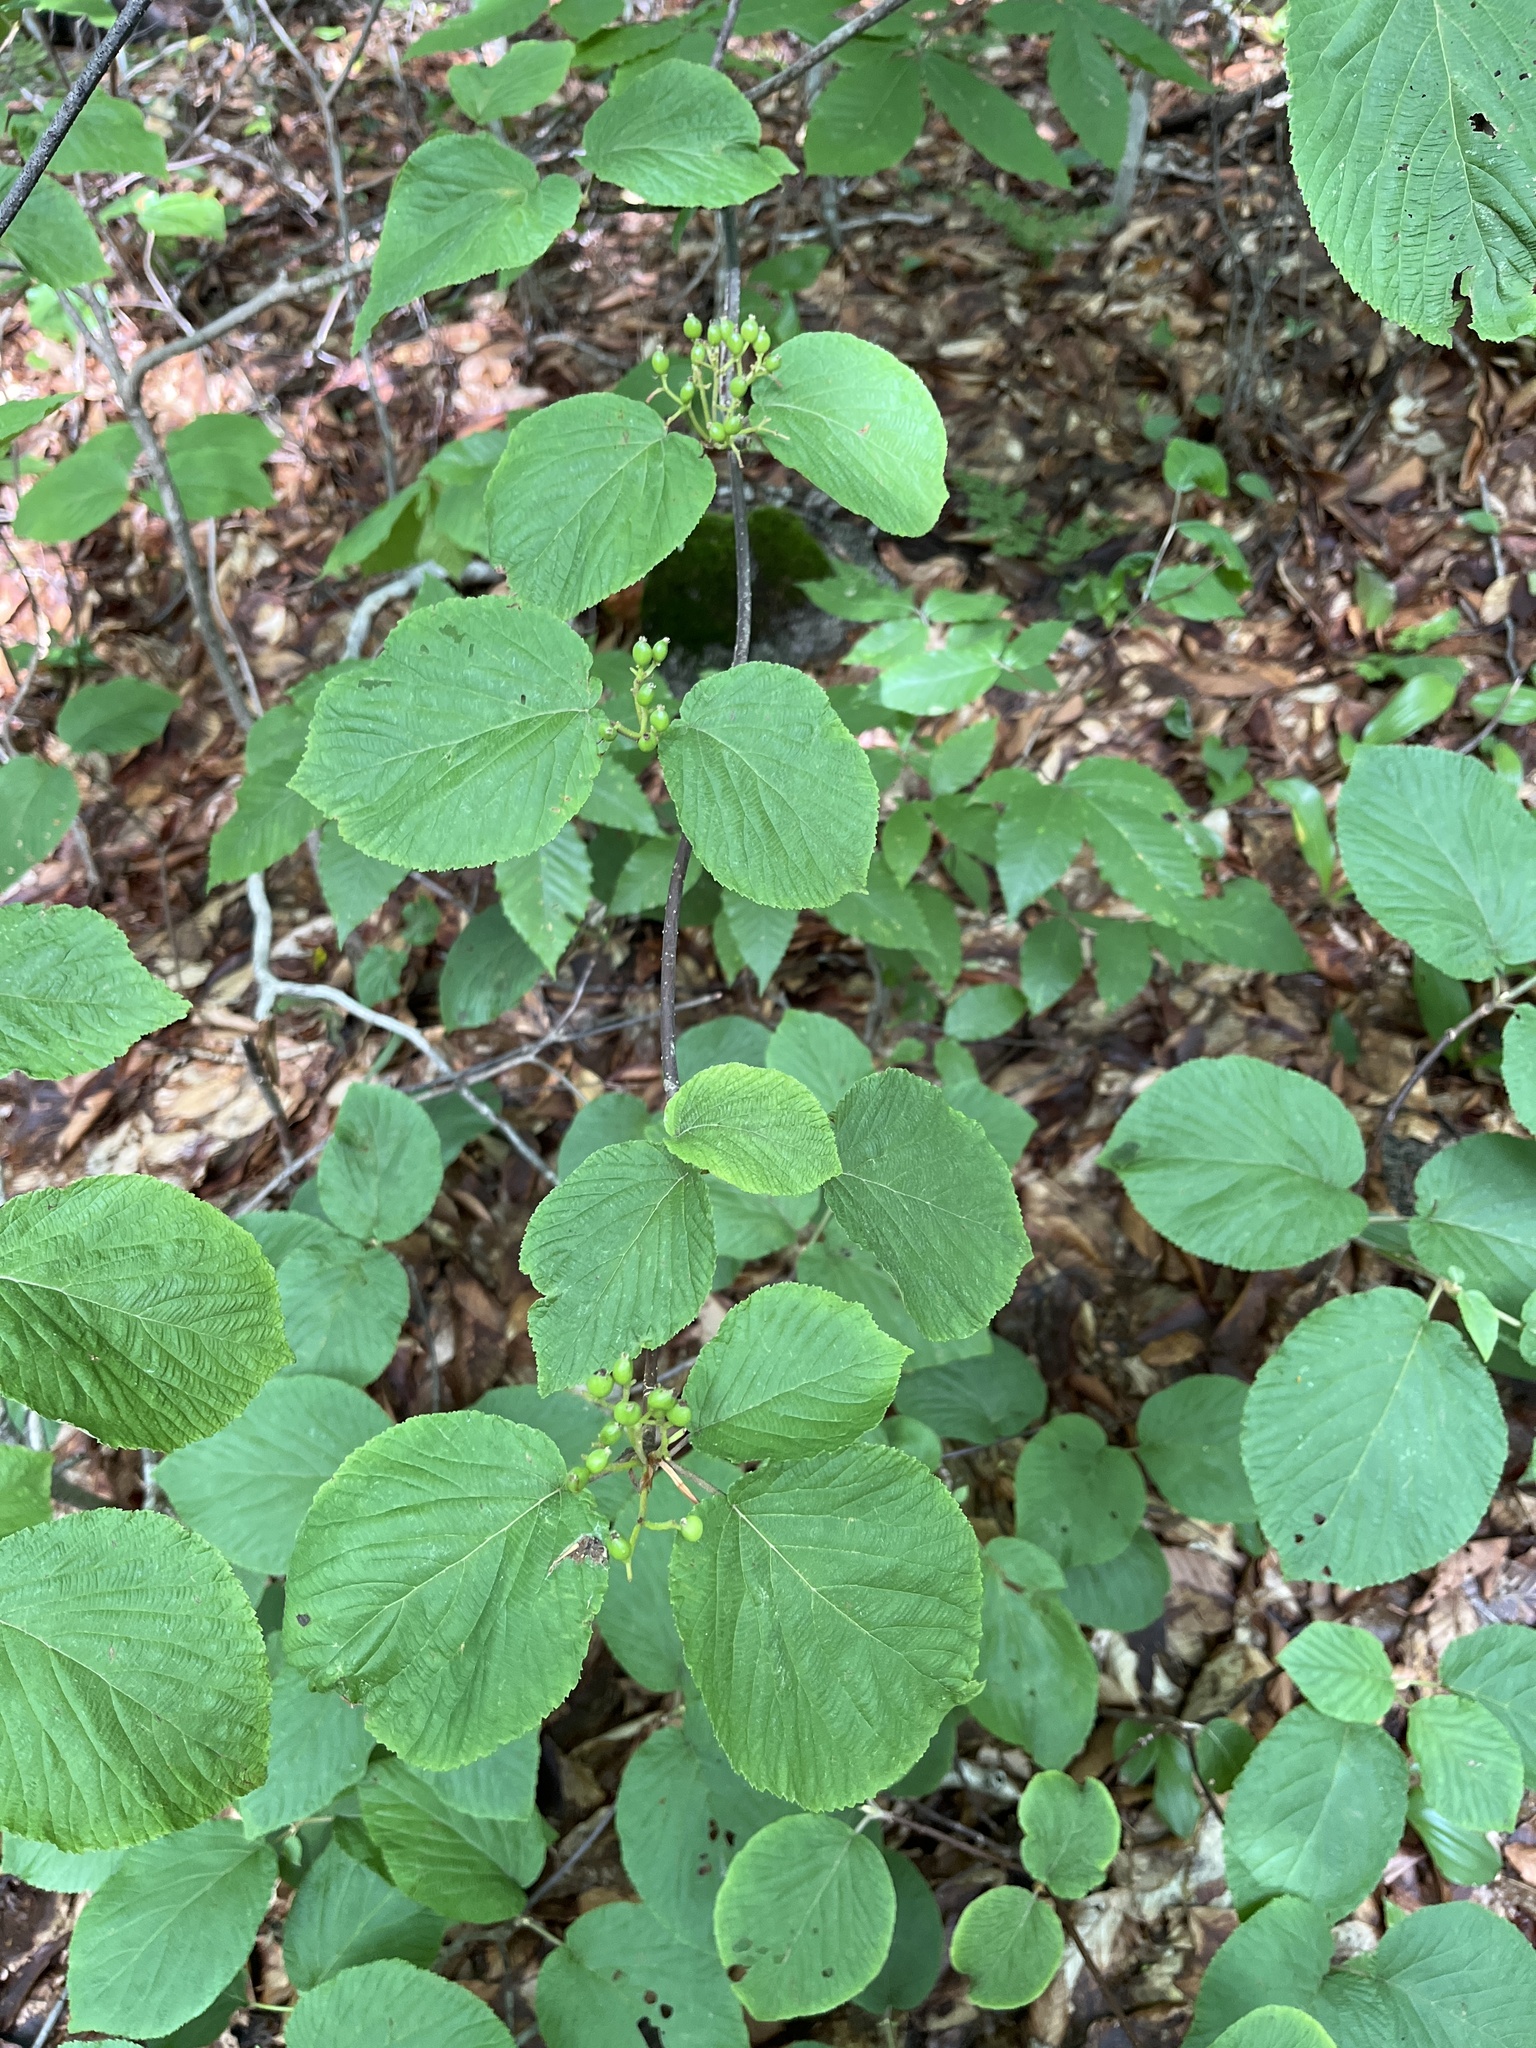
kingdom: Plantae
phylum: Tracheophyta
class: Magnoliopsida
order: Dipsacales
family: Viburnaceae
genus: Viburnum
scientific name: Viburnum lantanoides
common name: Hobblebush
